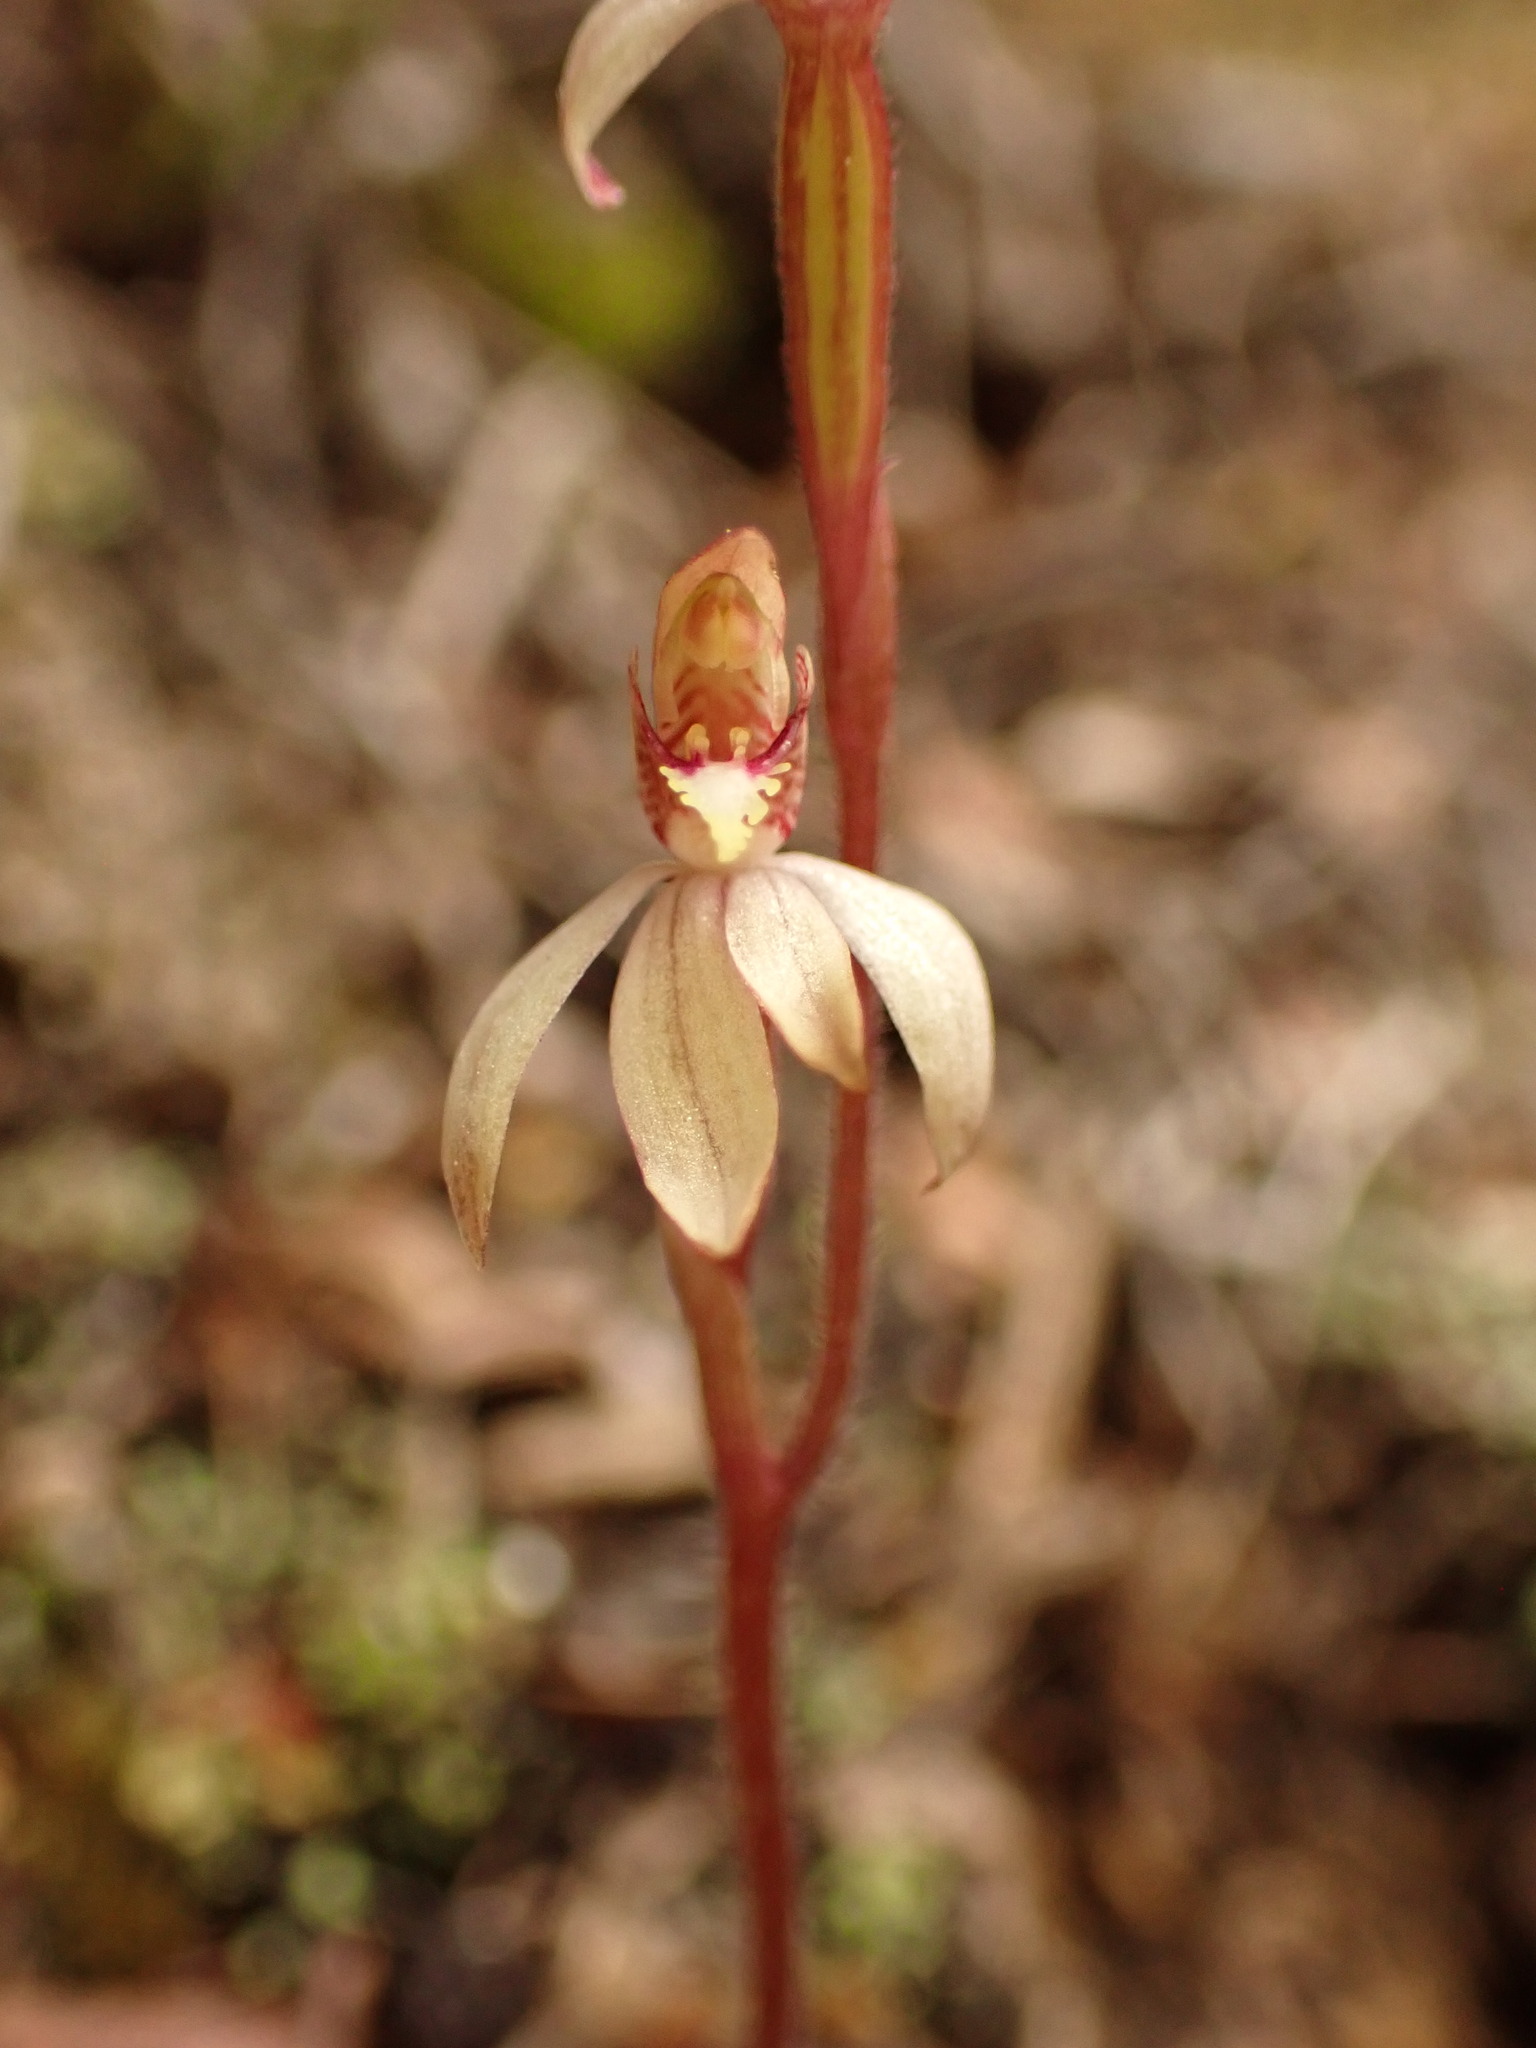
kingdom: Plantae
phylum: Tracheophyta
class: Liliopsida
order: Asparagales
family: Orchidaceae
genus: Caladenia
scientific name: Caladenia chlorostyla
